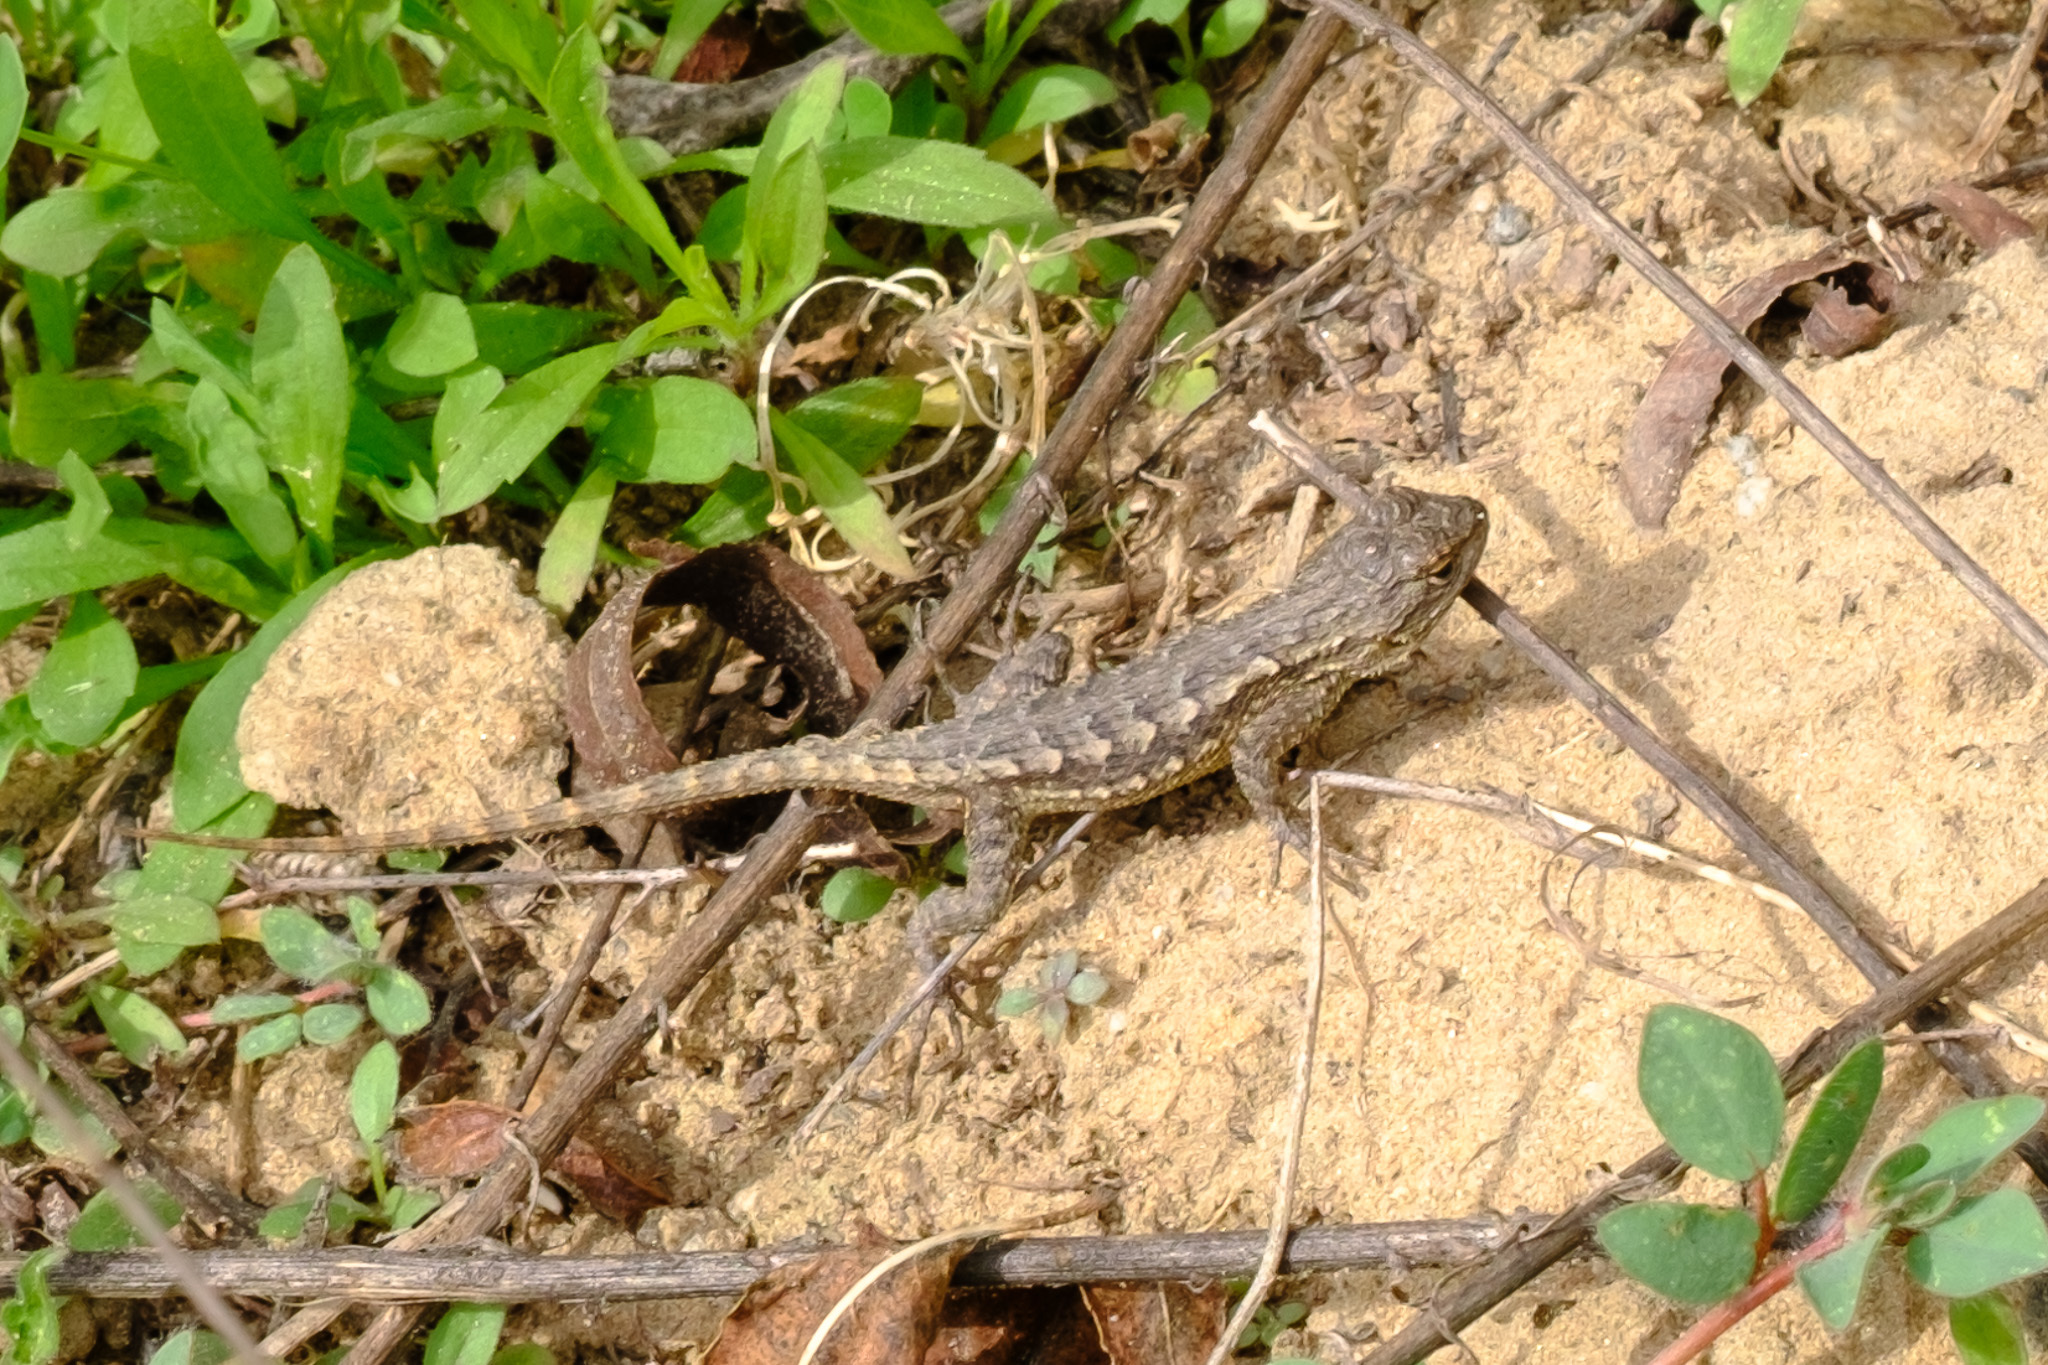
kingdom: Animalia
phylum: Chordata
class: Squamata
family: Phrynosomatidae
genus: Sceloporus
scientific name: Sceloporus occidentalis
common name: Western fence lizard
